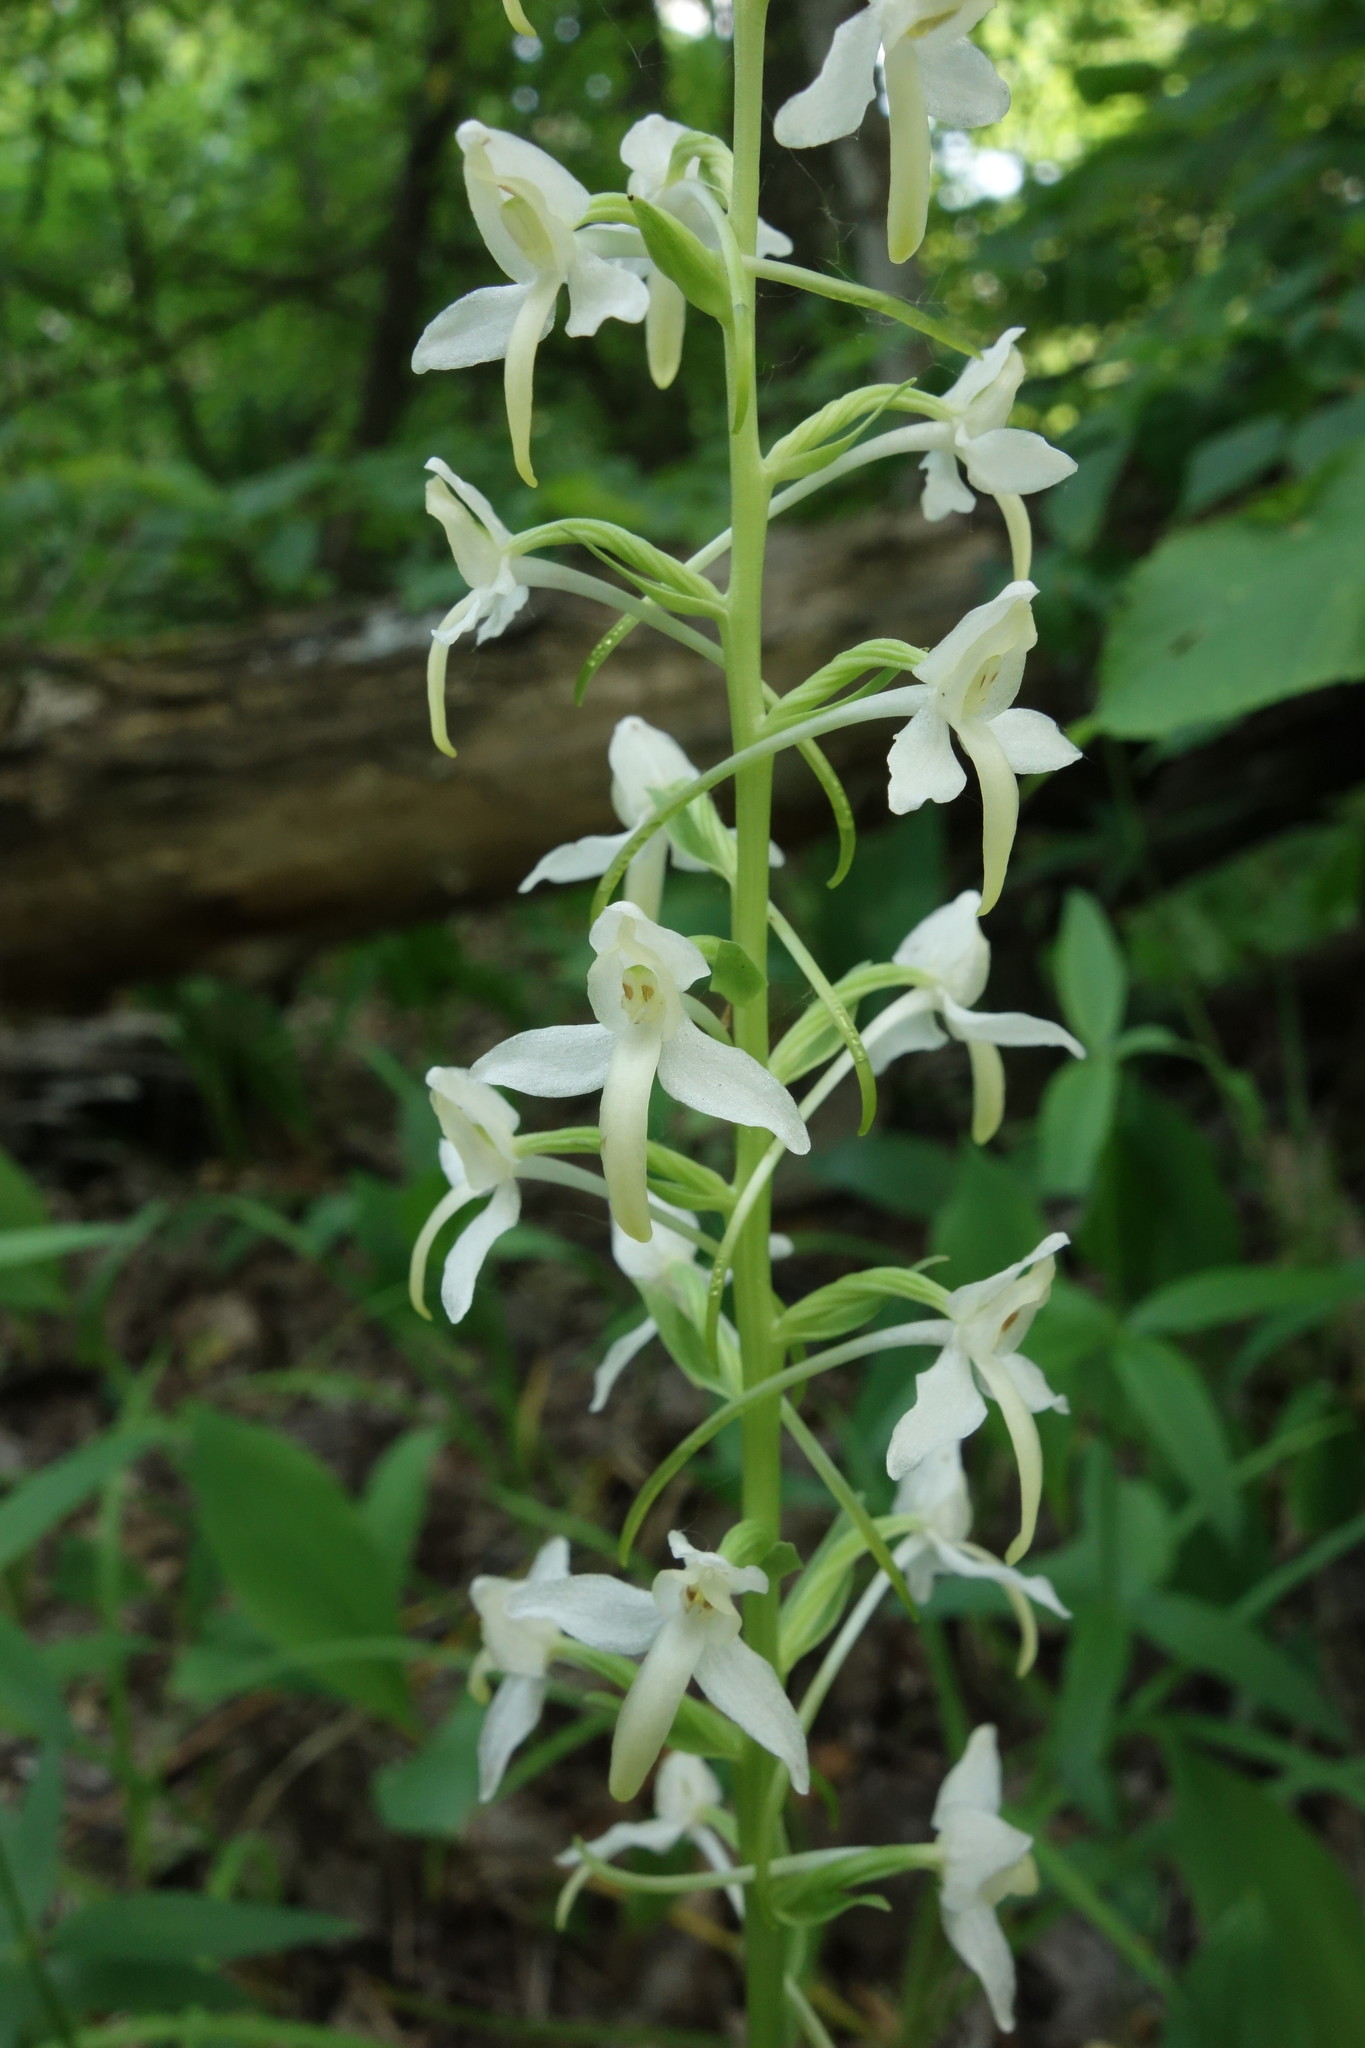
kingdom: Plantae
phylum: Tracheophyta
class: Liliopsida
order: Asparagales
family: Orchidaceae
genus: Platanthera
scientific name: Platanthera bifolia
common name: Lesser butterfly-orchid
